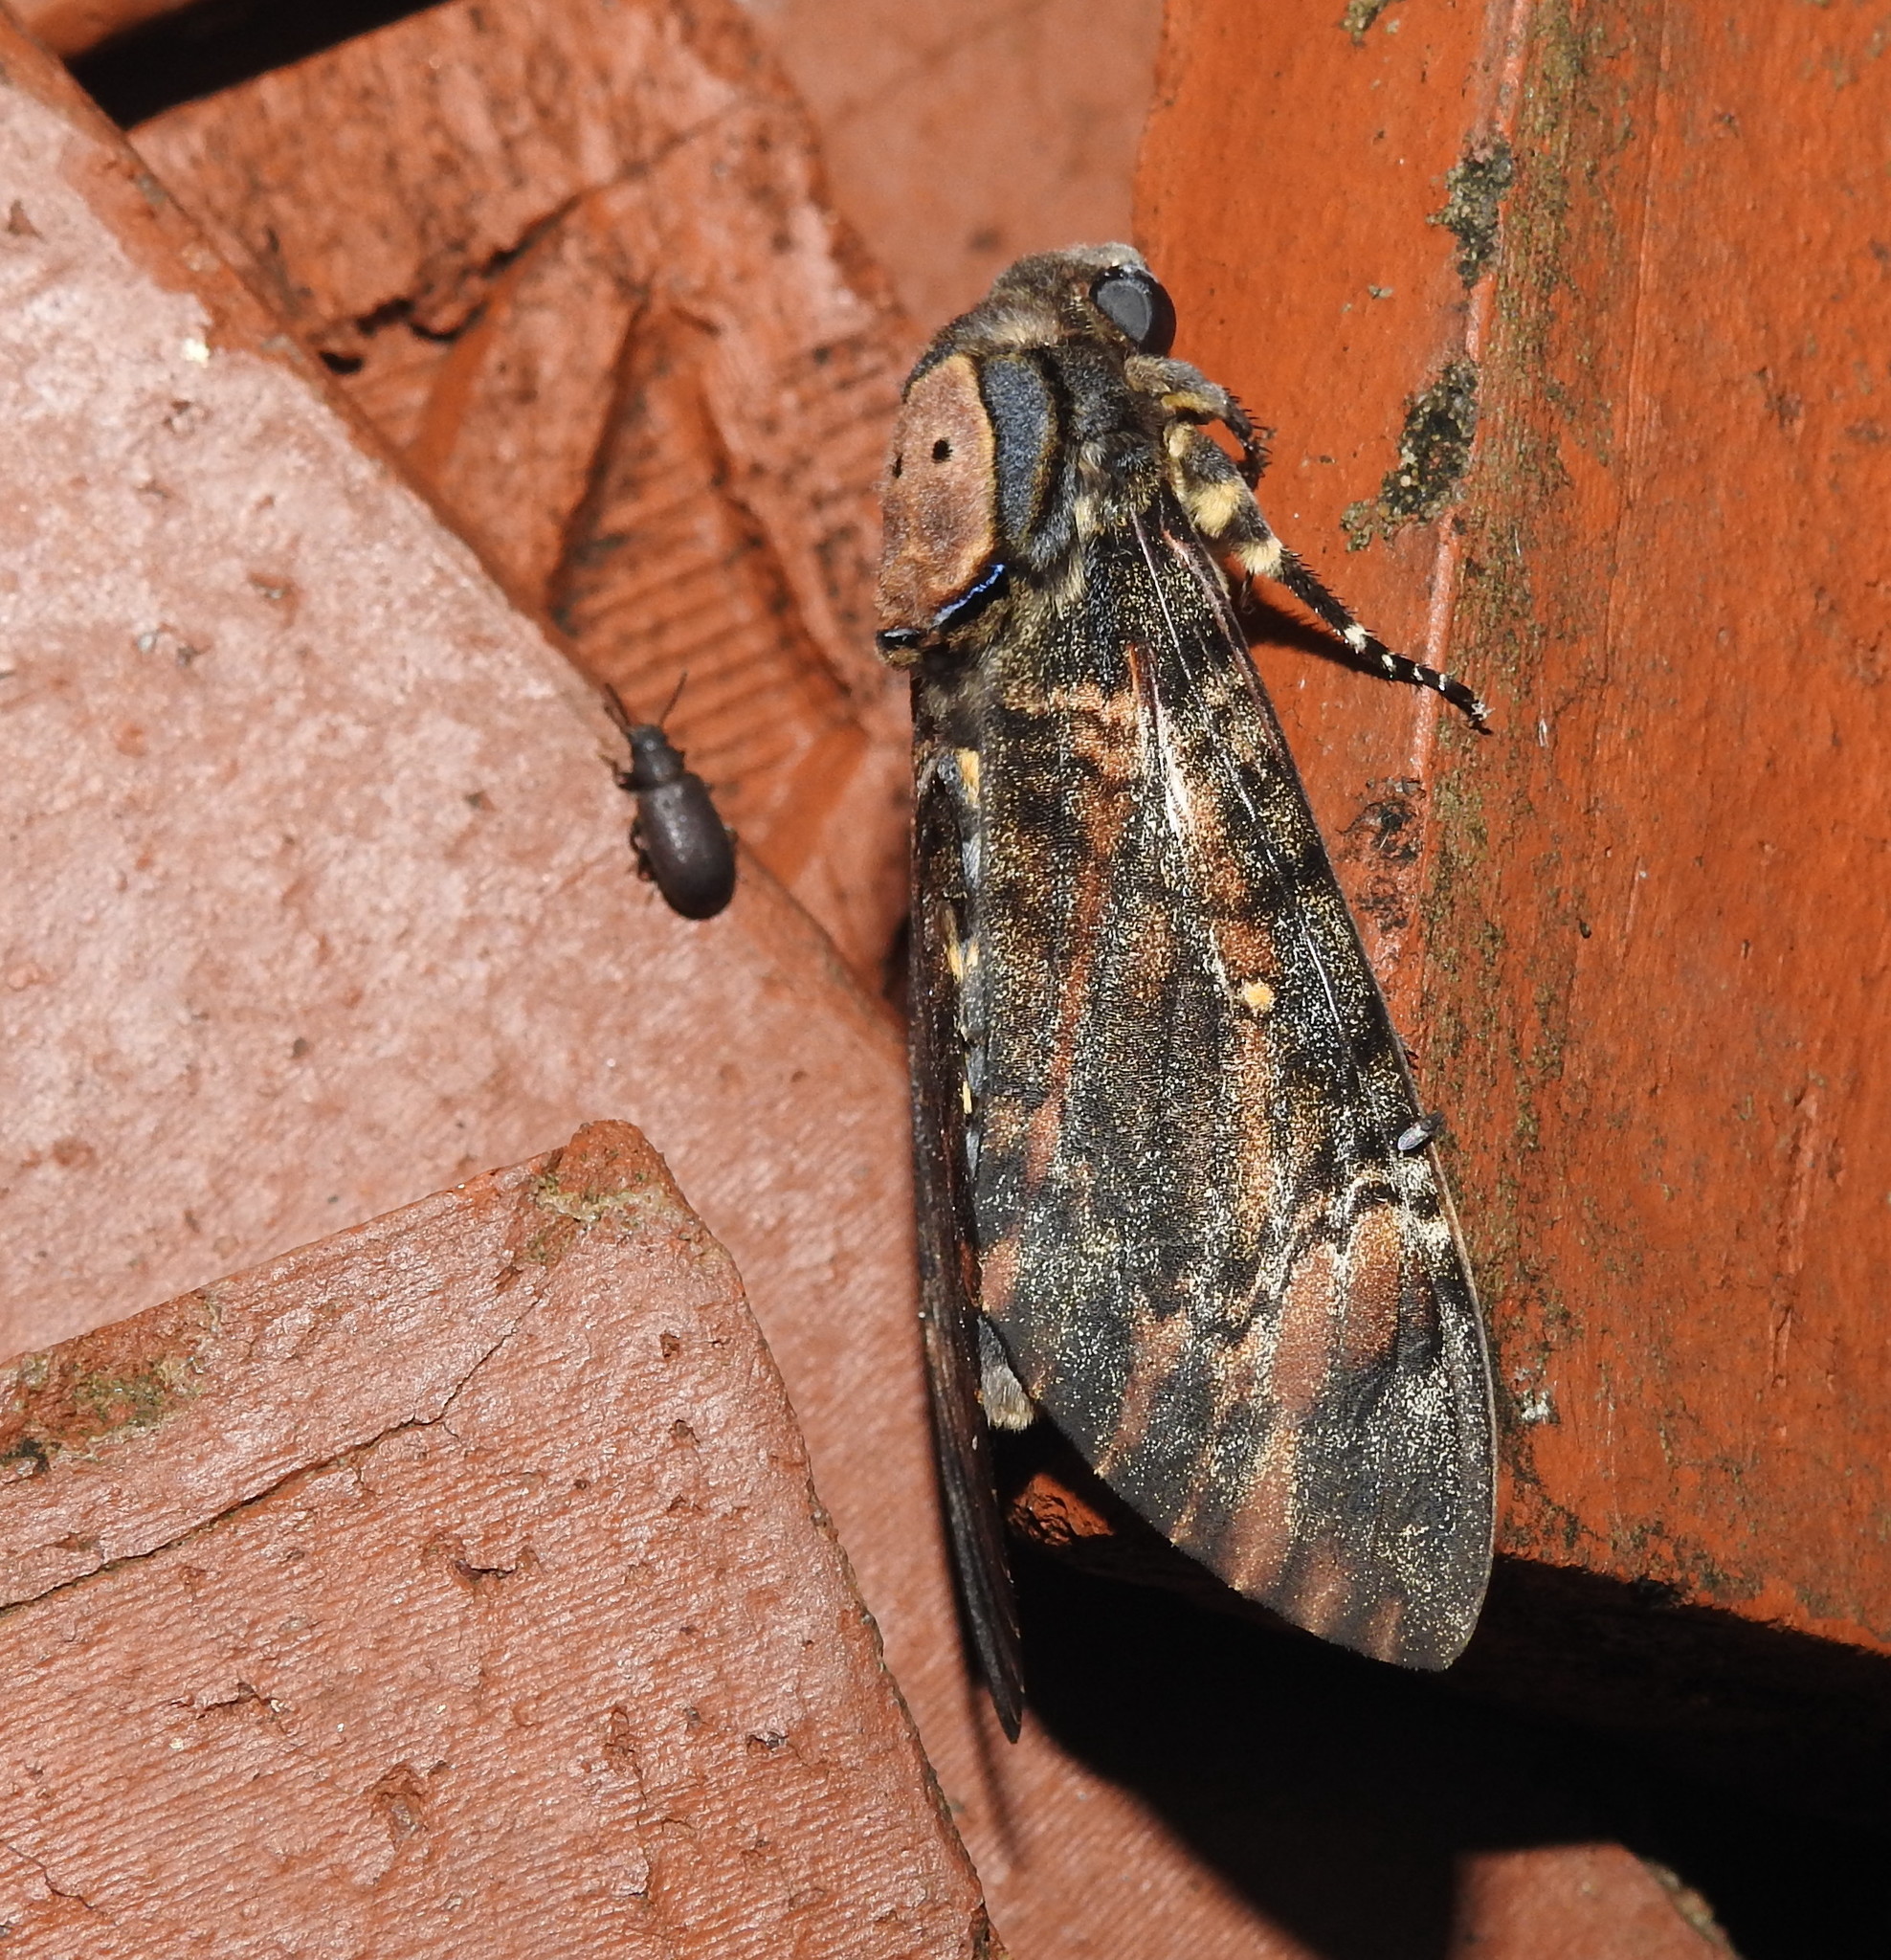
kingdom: Animalia
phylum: Arthropoda
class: Insecta
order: Lepidoptera
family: Sphingidae
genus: Acherontia
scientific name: Acherontia styx
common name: Death's-head hawk moth
